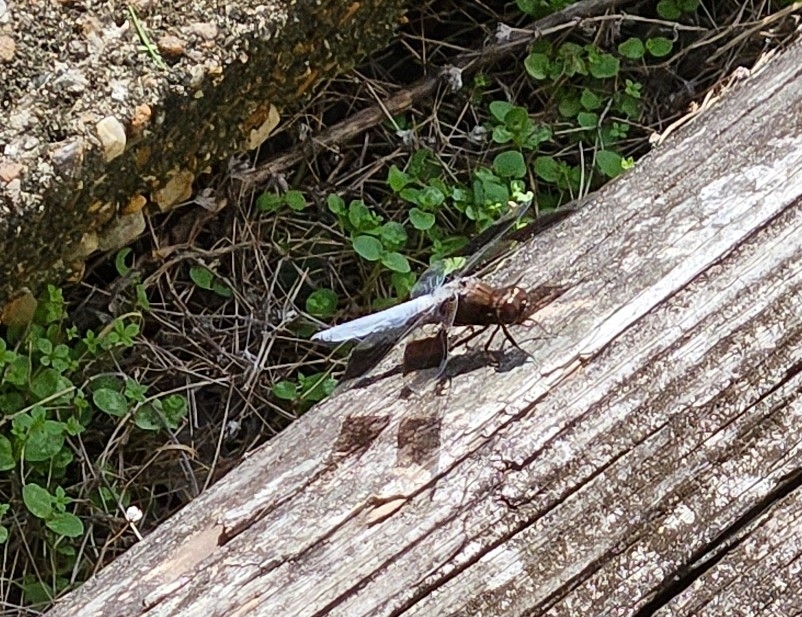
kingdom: Animalia
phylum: Arthropoda
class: Insecta
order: Odonata
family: Libellulidae
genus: Plathemis
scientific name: Plathemis lydia
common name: Common whitetail
